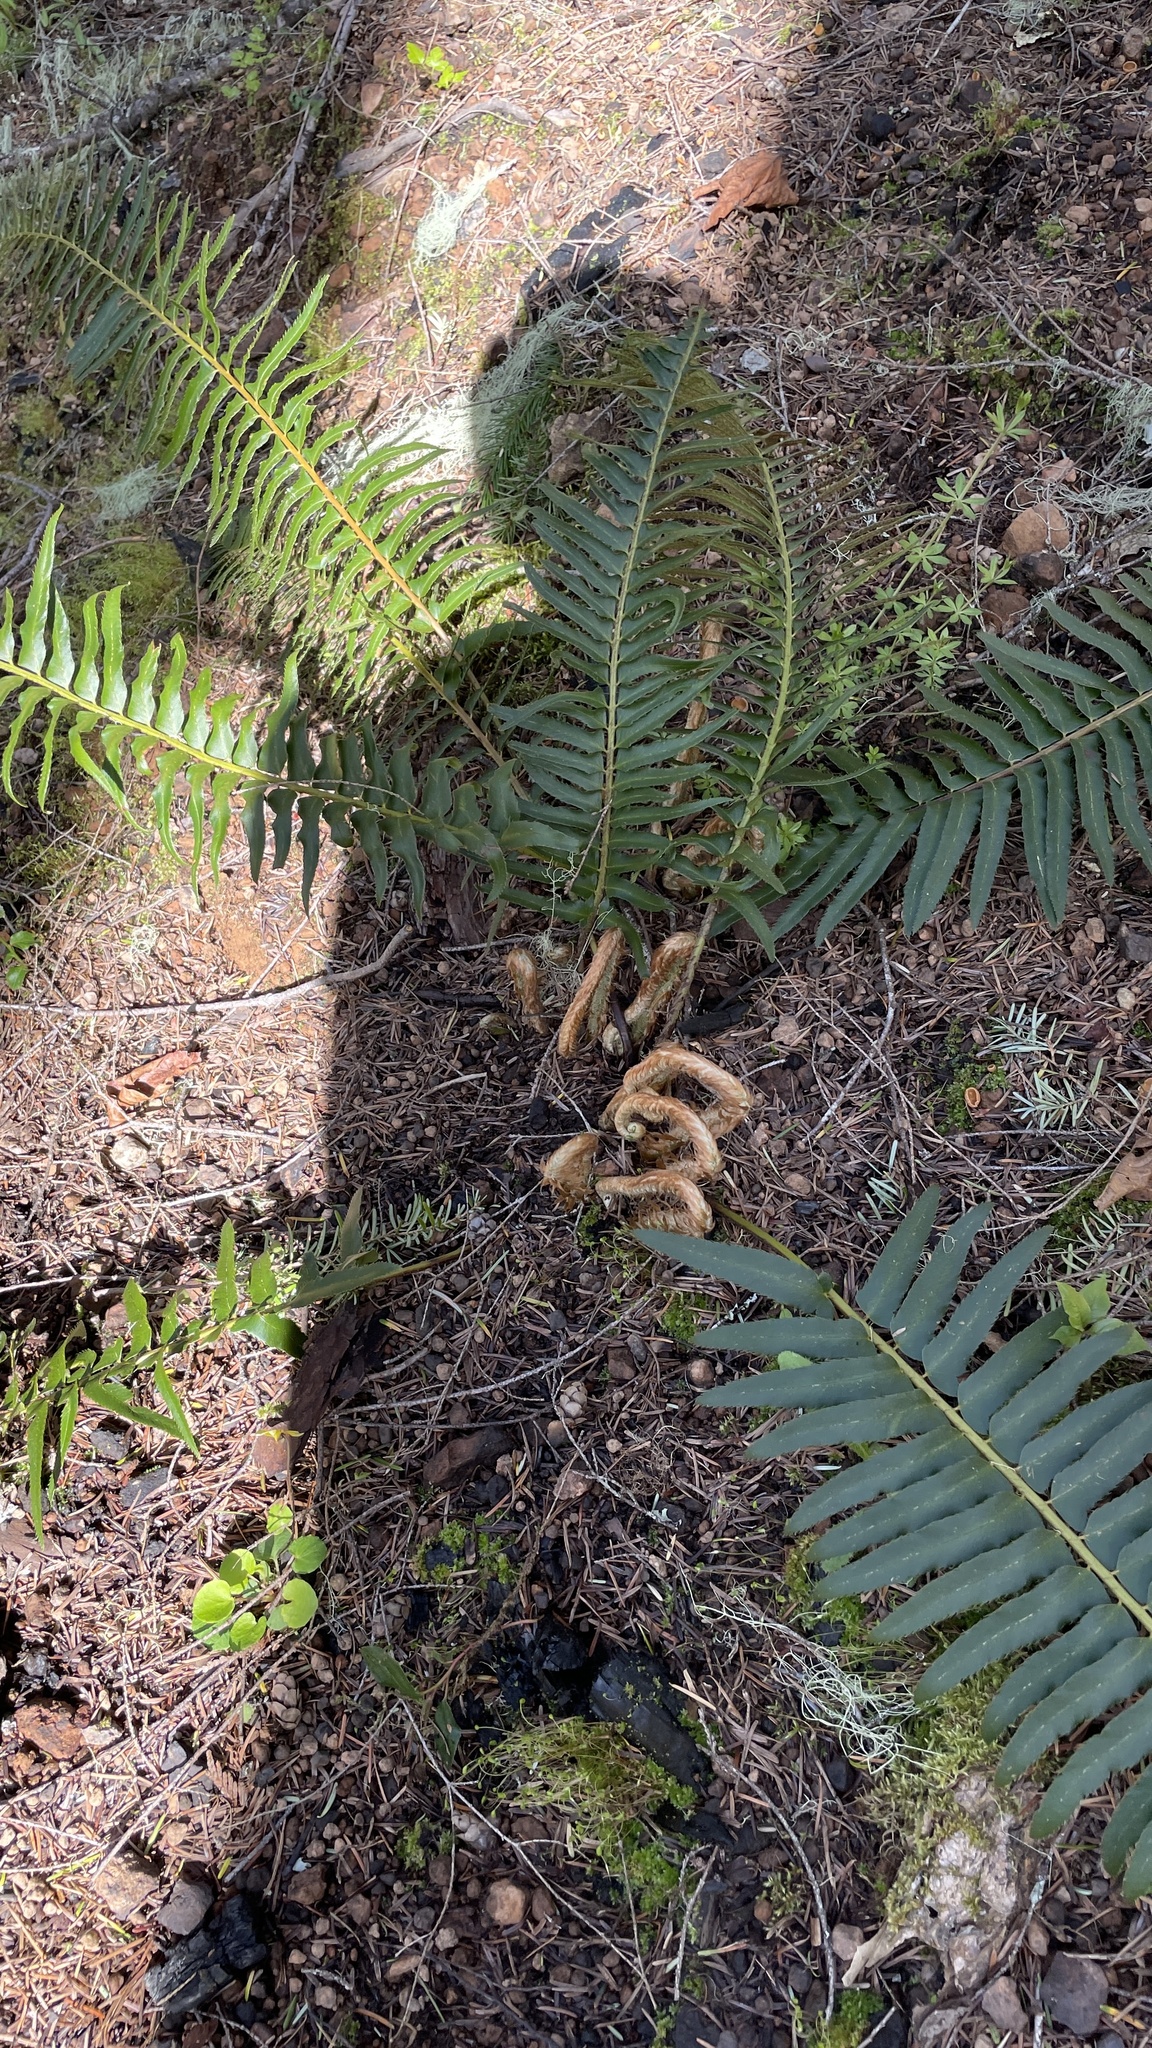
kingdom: Plantae
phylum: Tracheophyta
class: Polypodiopsida
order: Polypodiales
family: Dryopteridaceae
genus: Polystichum
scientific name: Polystichum munitum
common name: Western sword-fern
